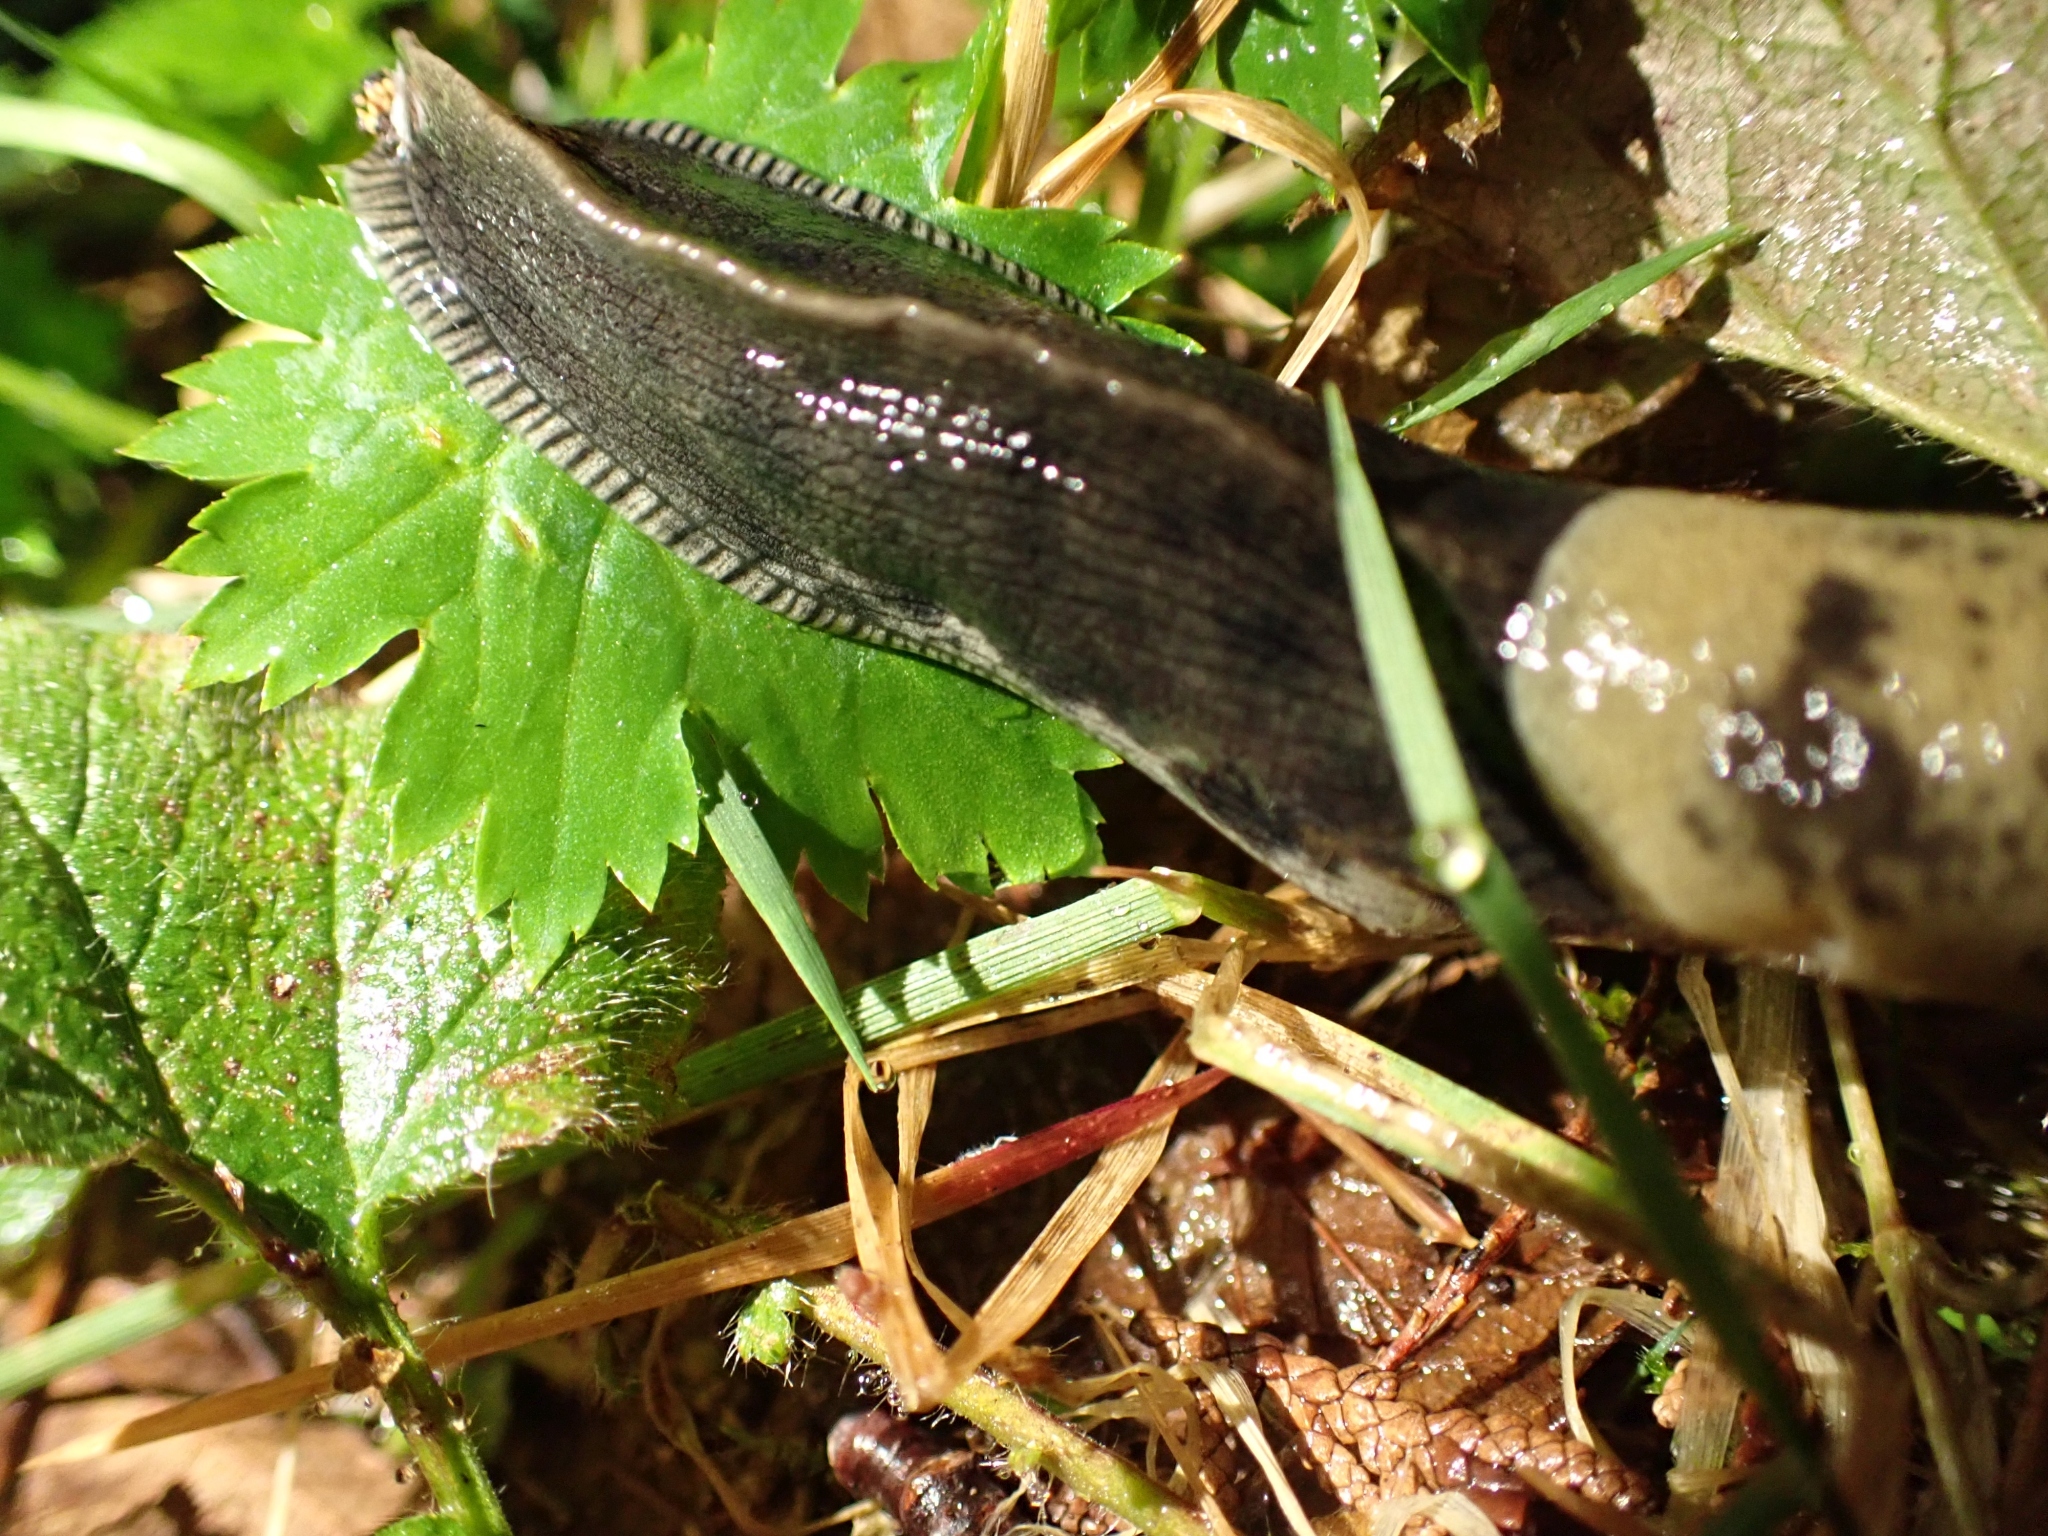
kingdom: Animalia
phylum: Mollusca
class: Gastropoda
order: Stylommatophora
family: Ariolimacidae
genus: Ariolimax
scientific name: Ariolimax columbianus
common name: Pacific banana slug
